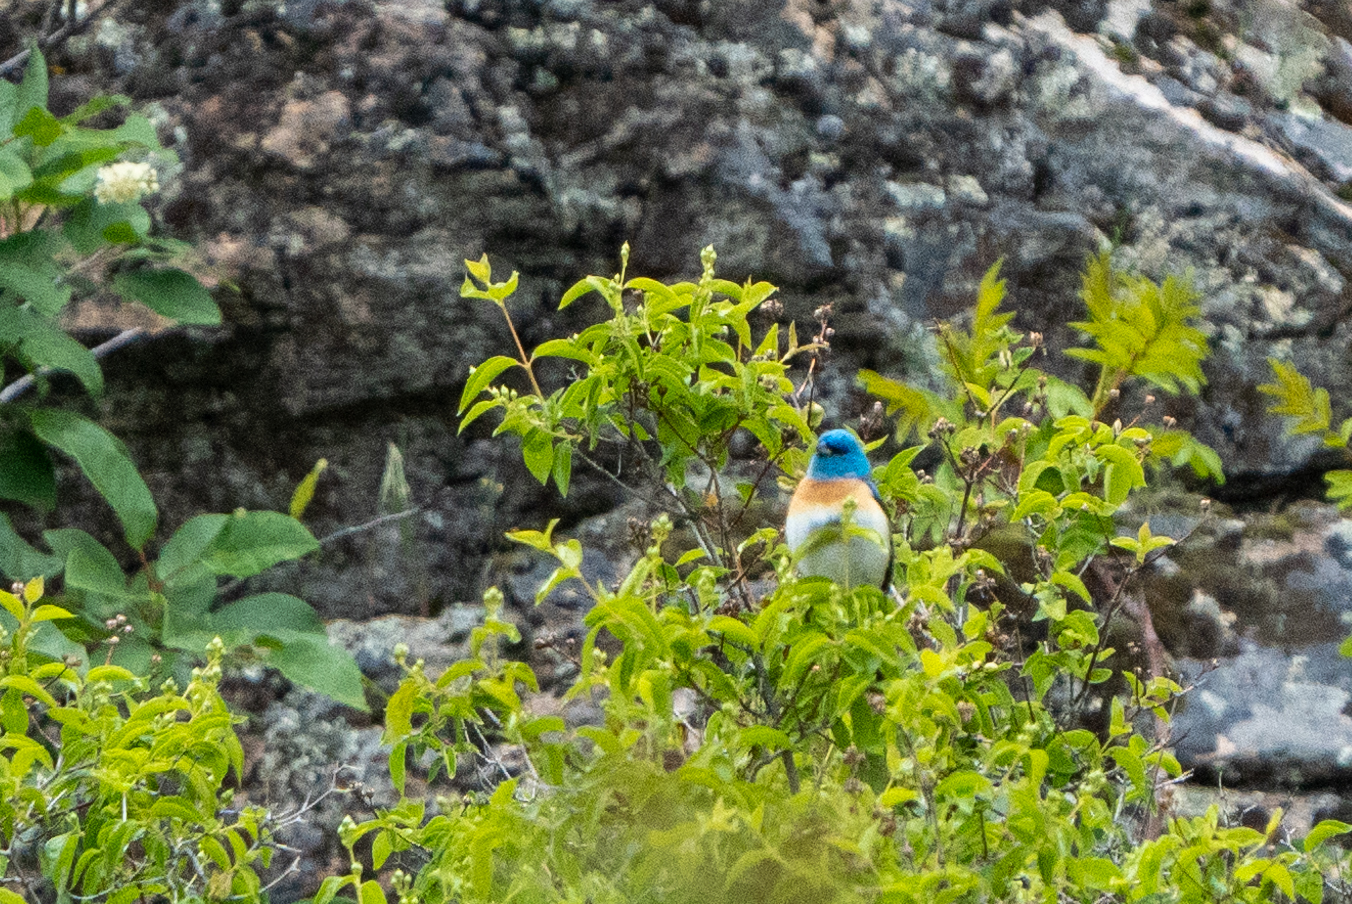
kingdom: Animalia
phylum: Chordata
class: Aves
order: Passeriformes
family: Cardinalidae
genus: Passerina
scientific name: Passerina amoena
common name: Lazuli bunting
